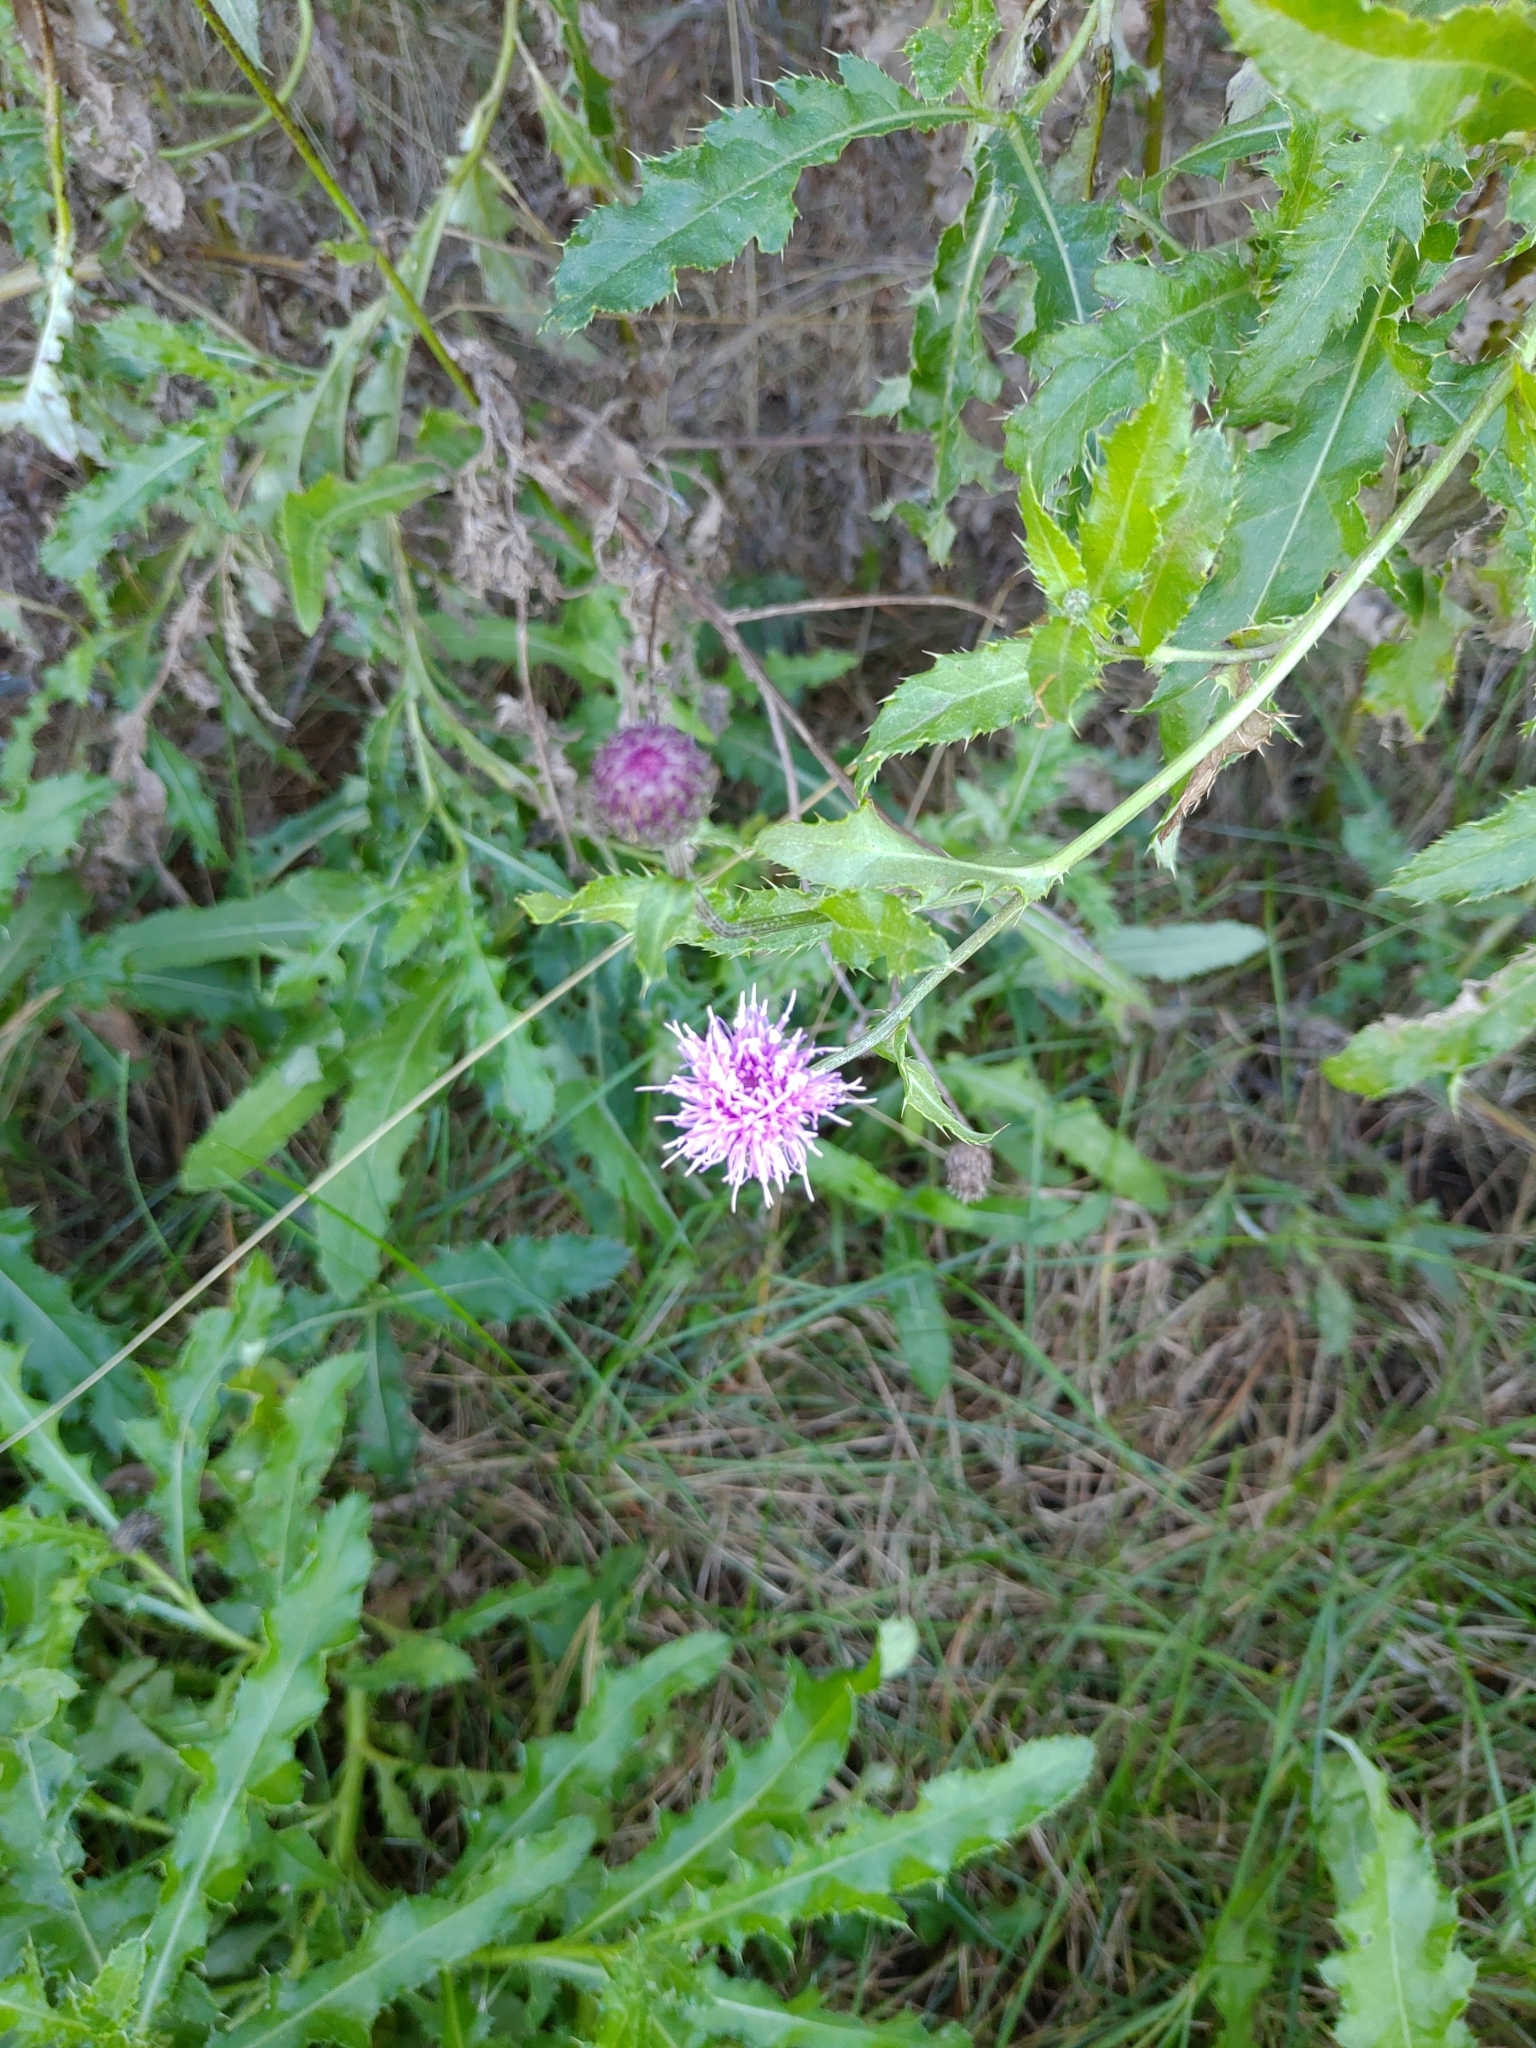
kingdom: Plantae
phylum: Tracheophyta
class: Magnoliopsida
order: Asterales
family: Asteraceae
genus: Cirsium
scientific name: Cirsium arvense
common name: Creeping thistle
